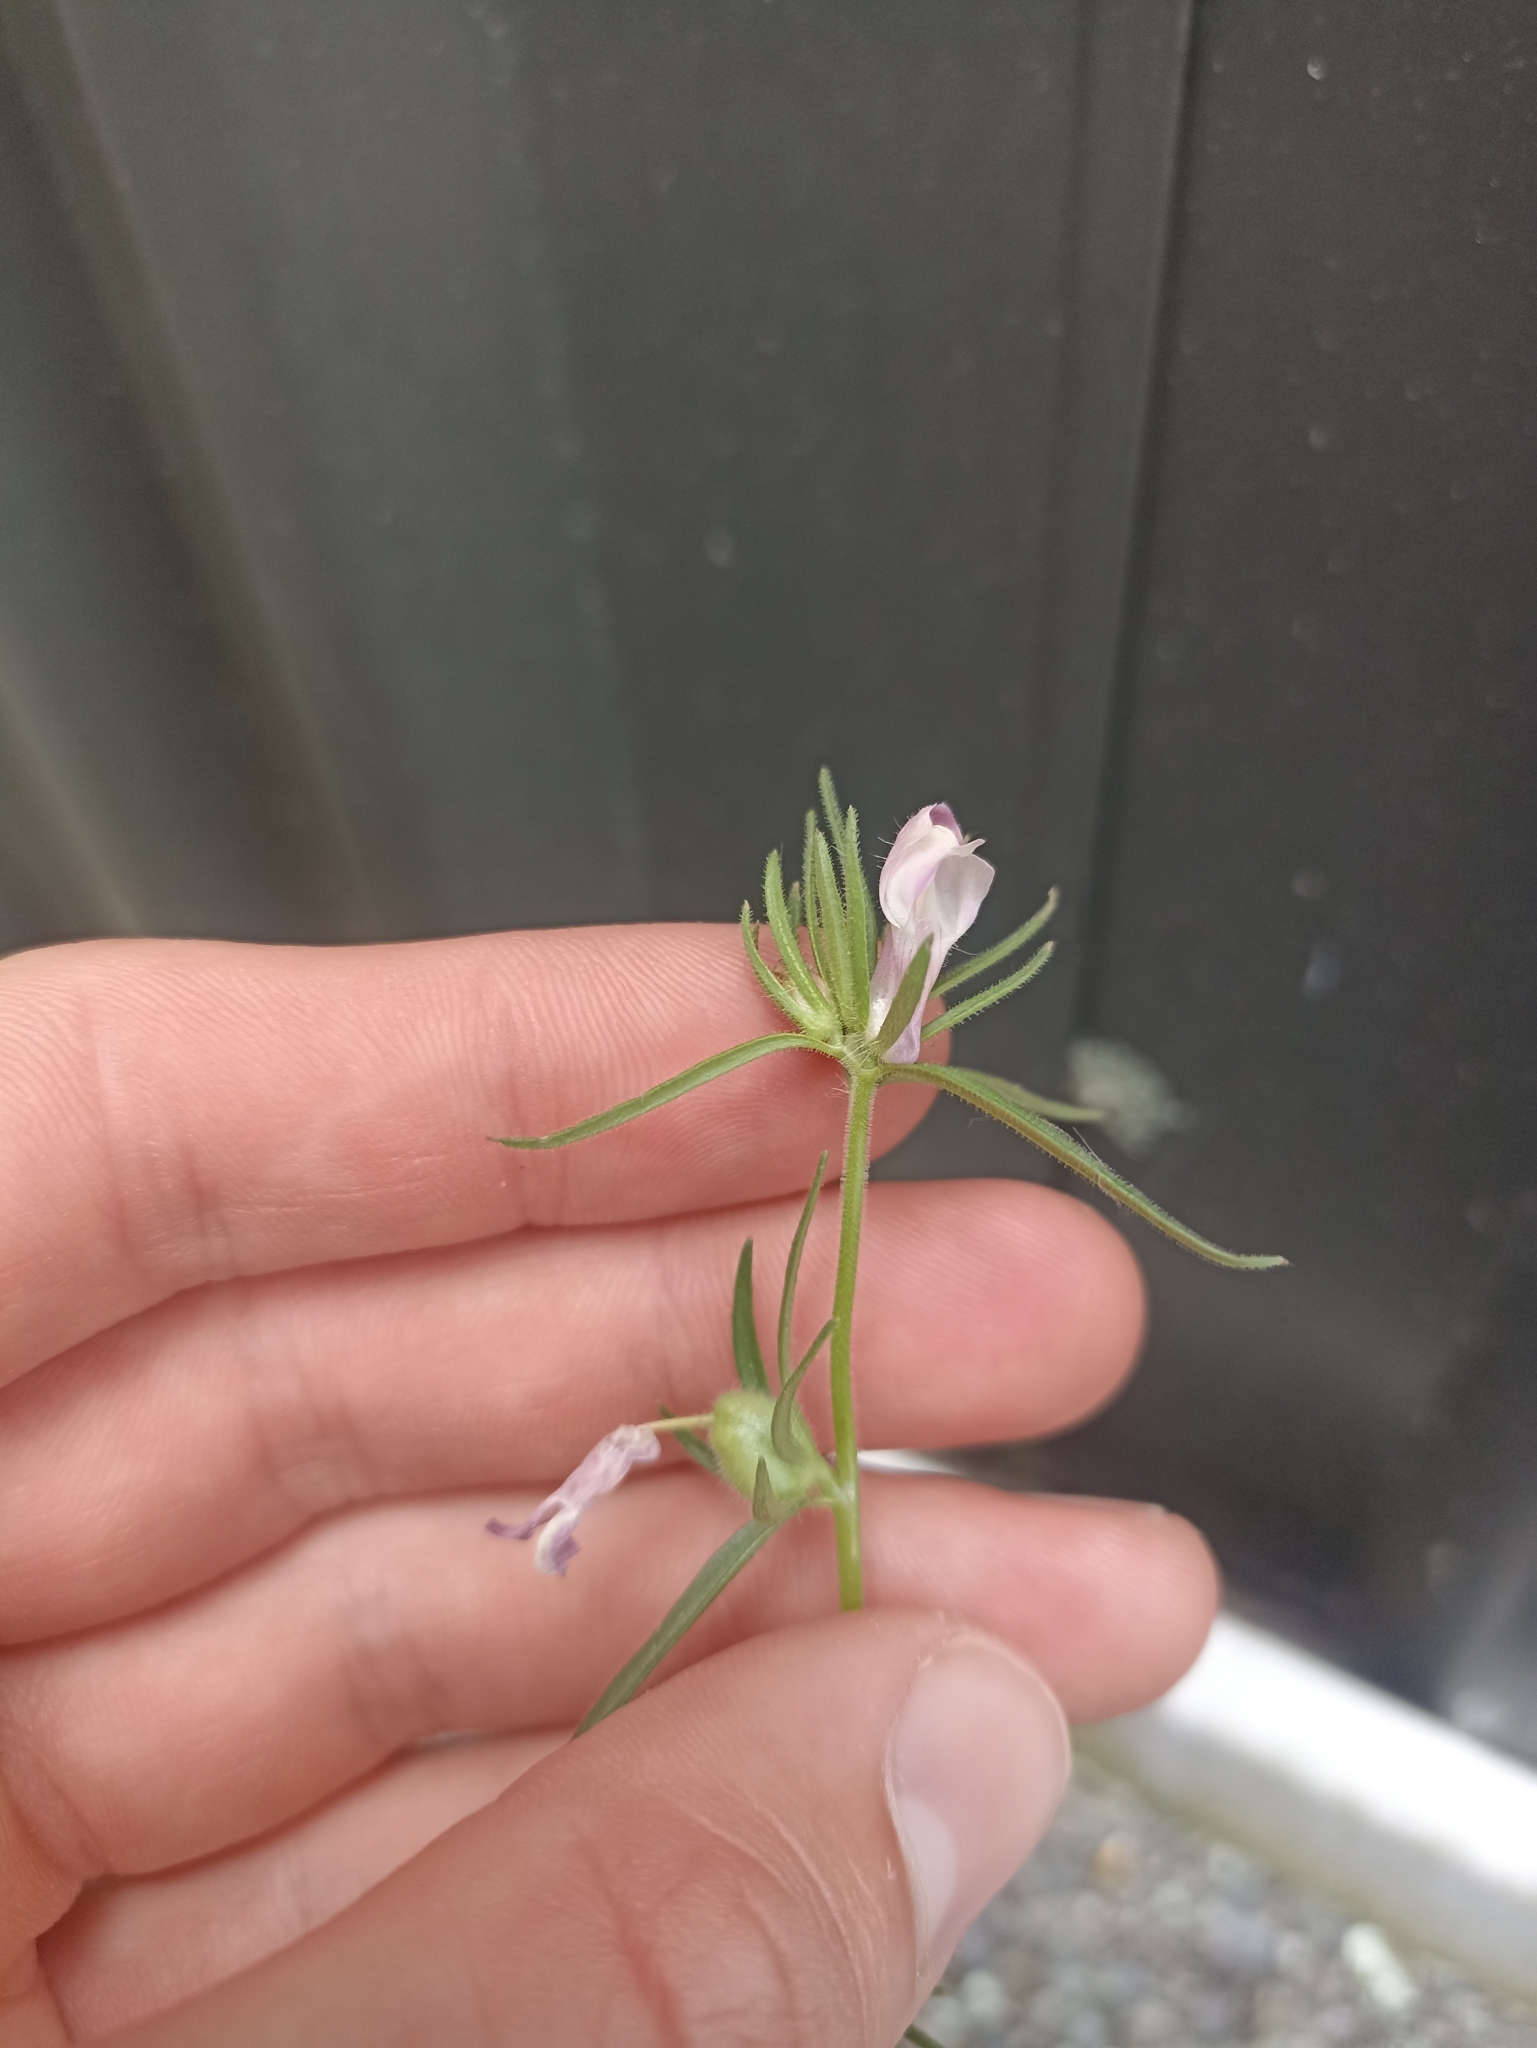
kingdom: Plantae
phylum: Tracheophyta
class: Magnoliopsida
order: Lamiales
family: Plantaginaceae
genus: Misopates
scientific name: Misopates orontium
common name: Weasel's-snout
